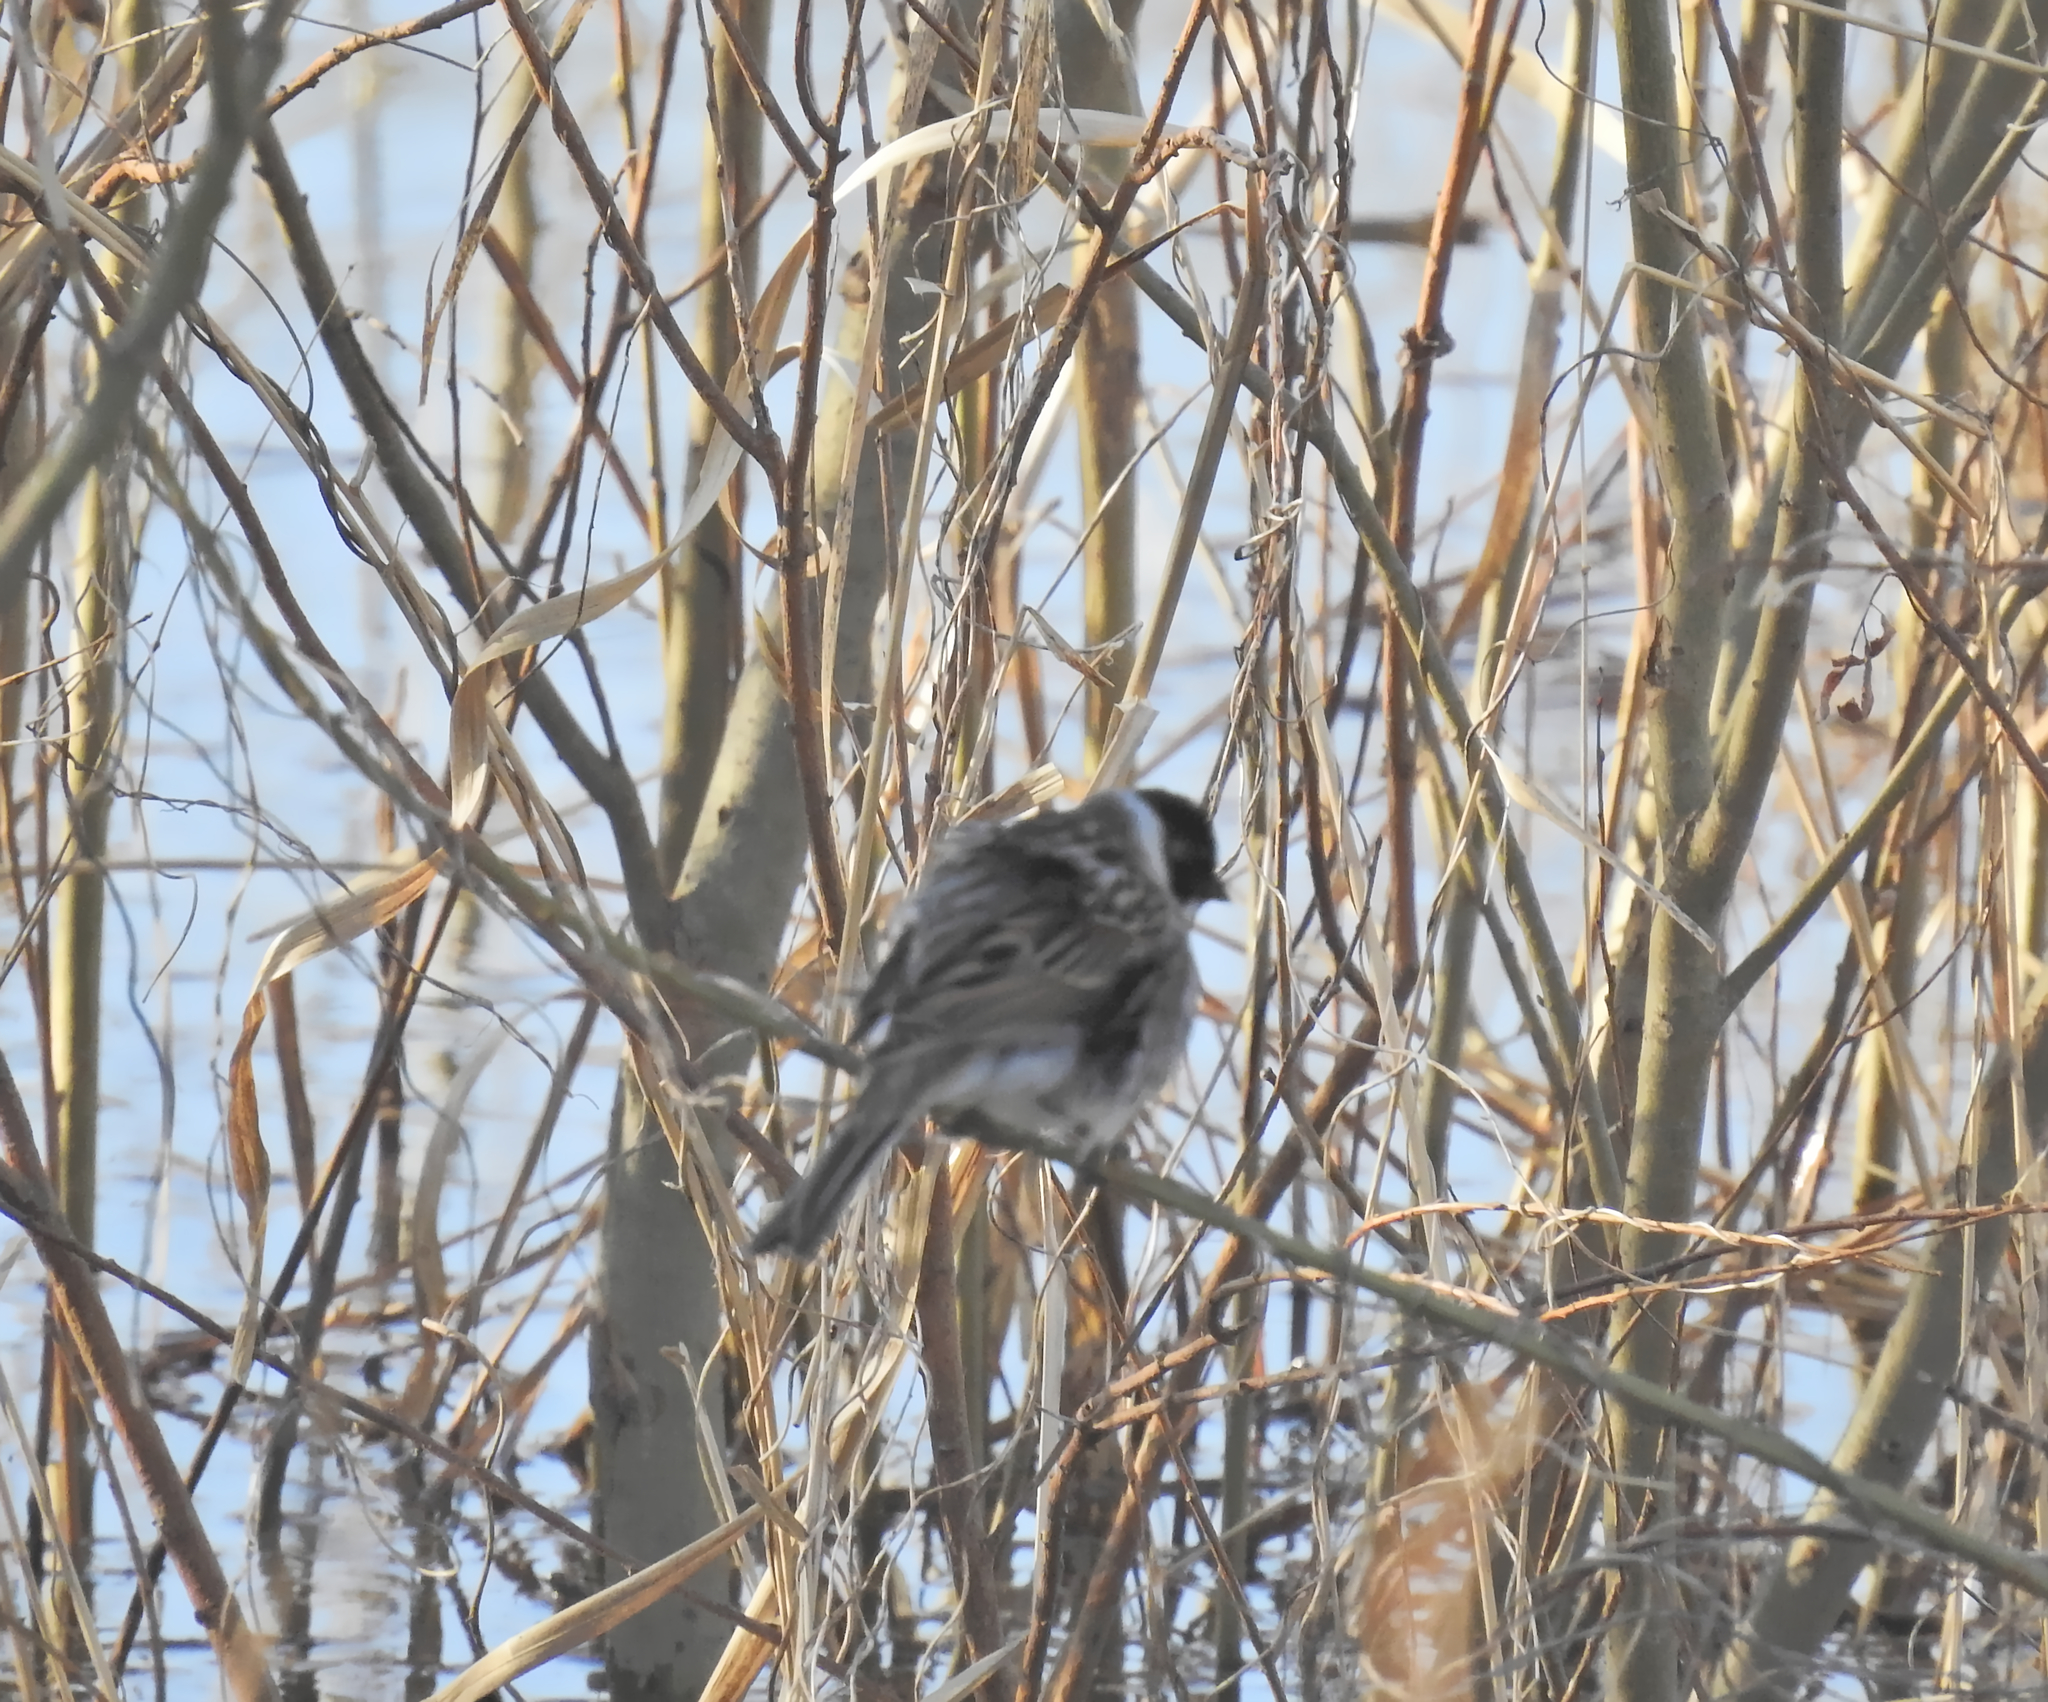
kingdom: Animalia
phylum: Chordata
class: Aves
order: Passeriformes
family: Emberizidae
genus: Emberiza
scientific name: Emberiza schoeniclus
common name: Reed bunting
